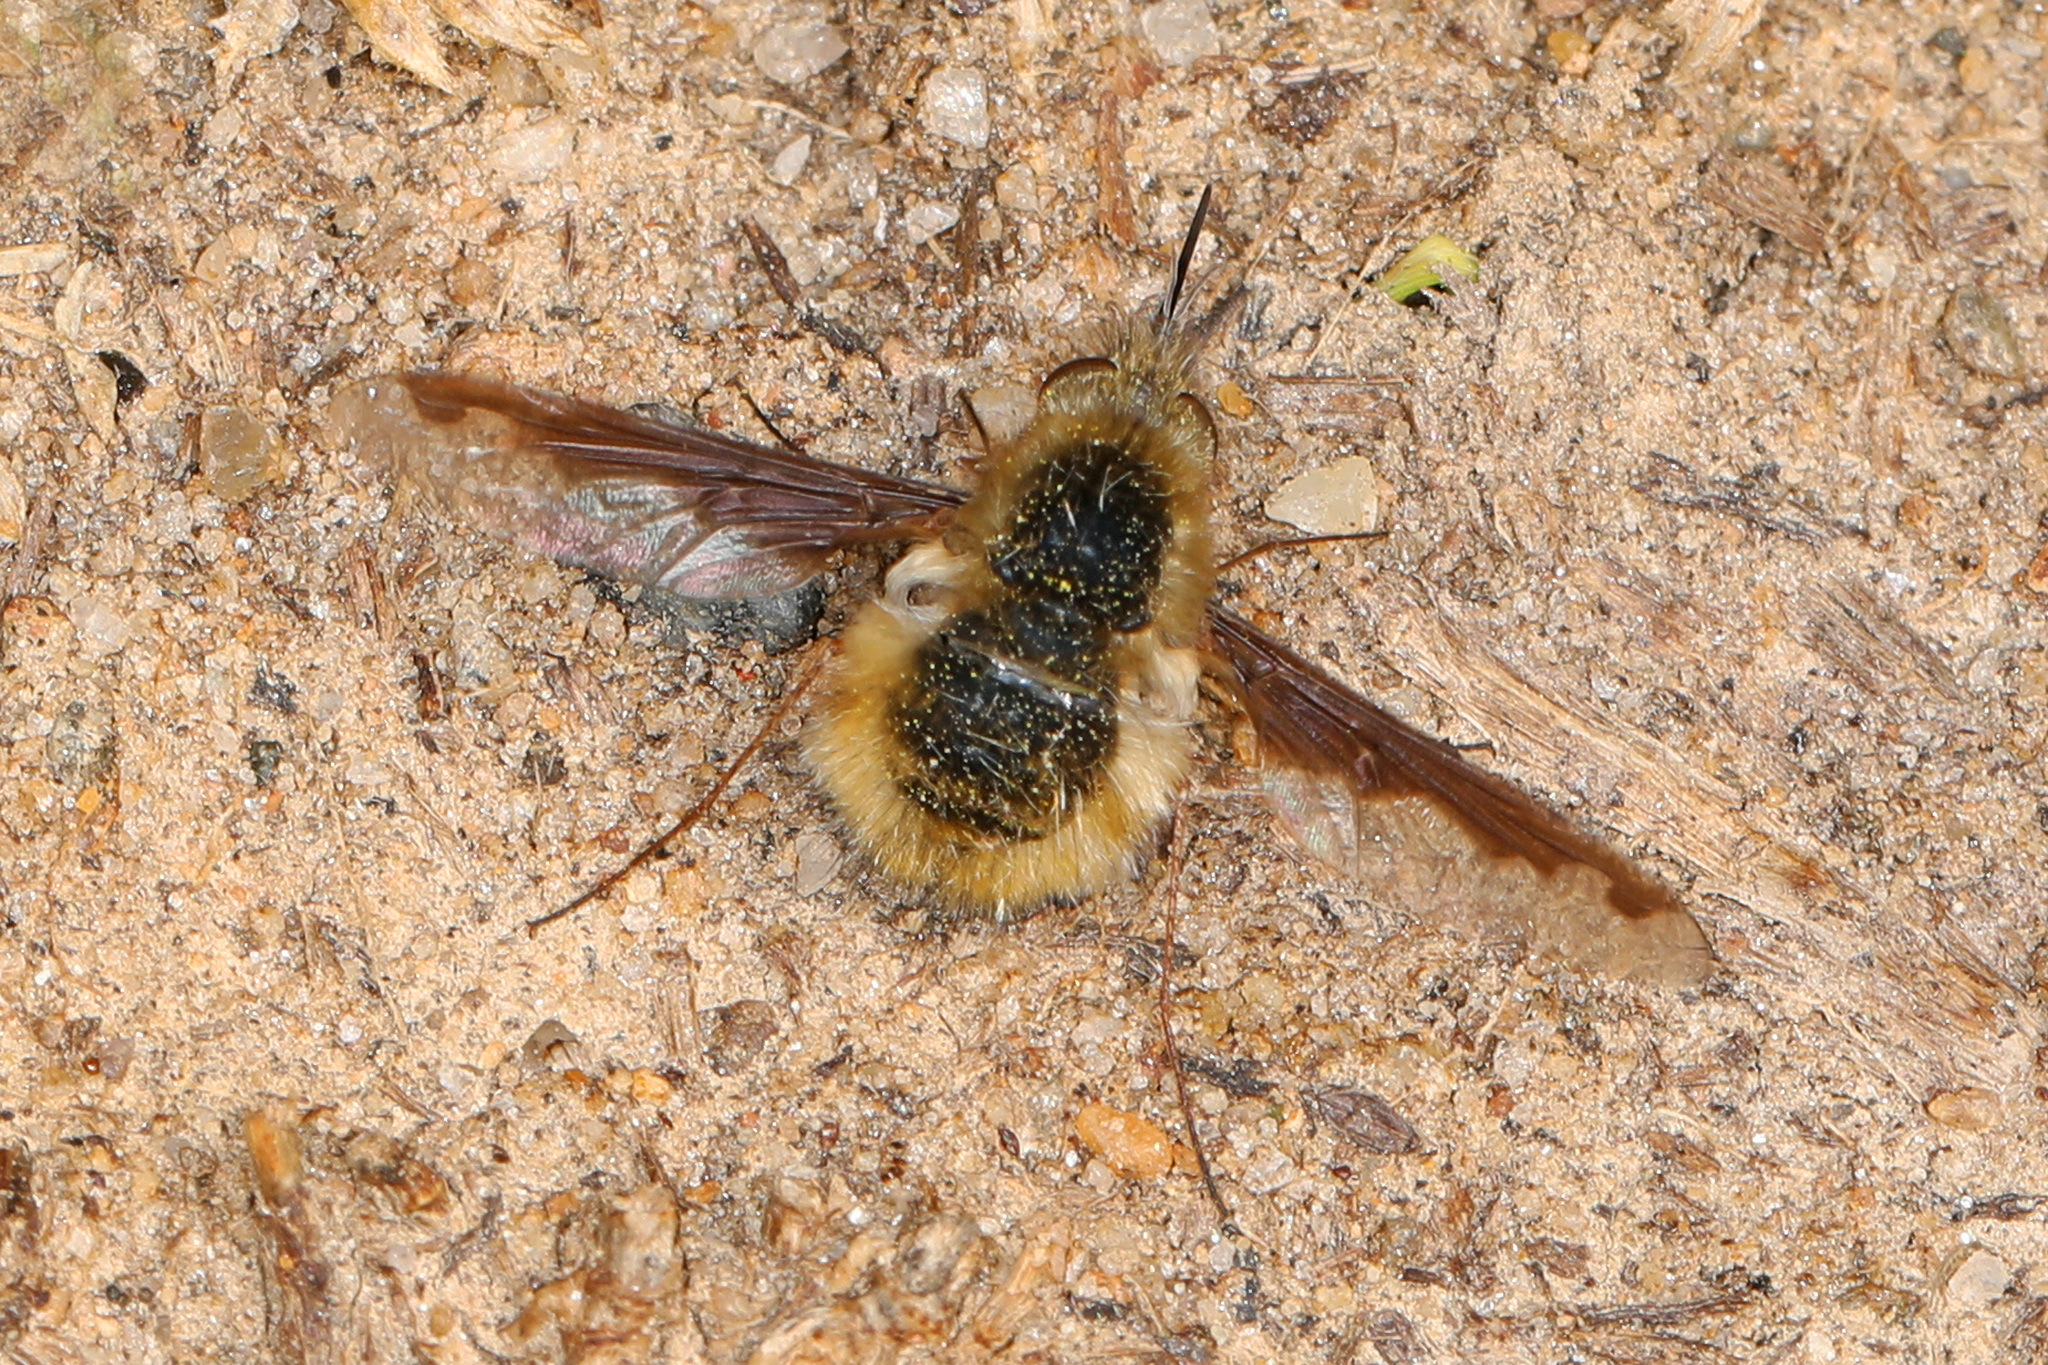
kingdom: Animalia
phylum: Arthropoda
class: Insecta
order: Diptera
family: Bombyliidae
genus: Bombylius
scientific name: Bombylius major
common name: Bee fly
